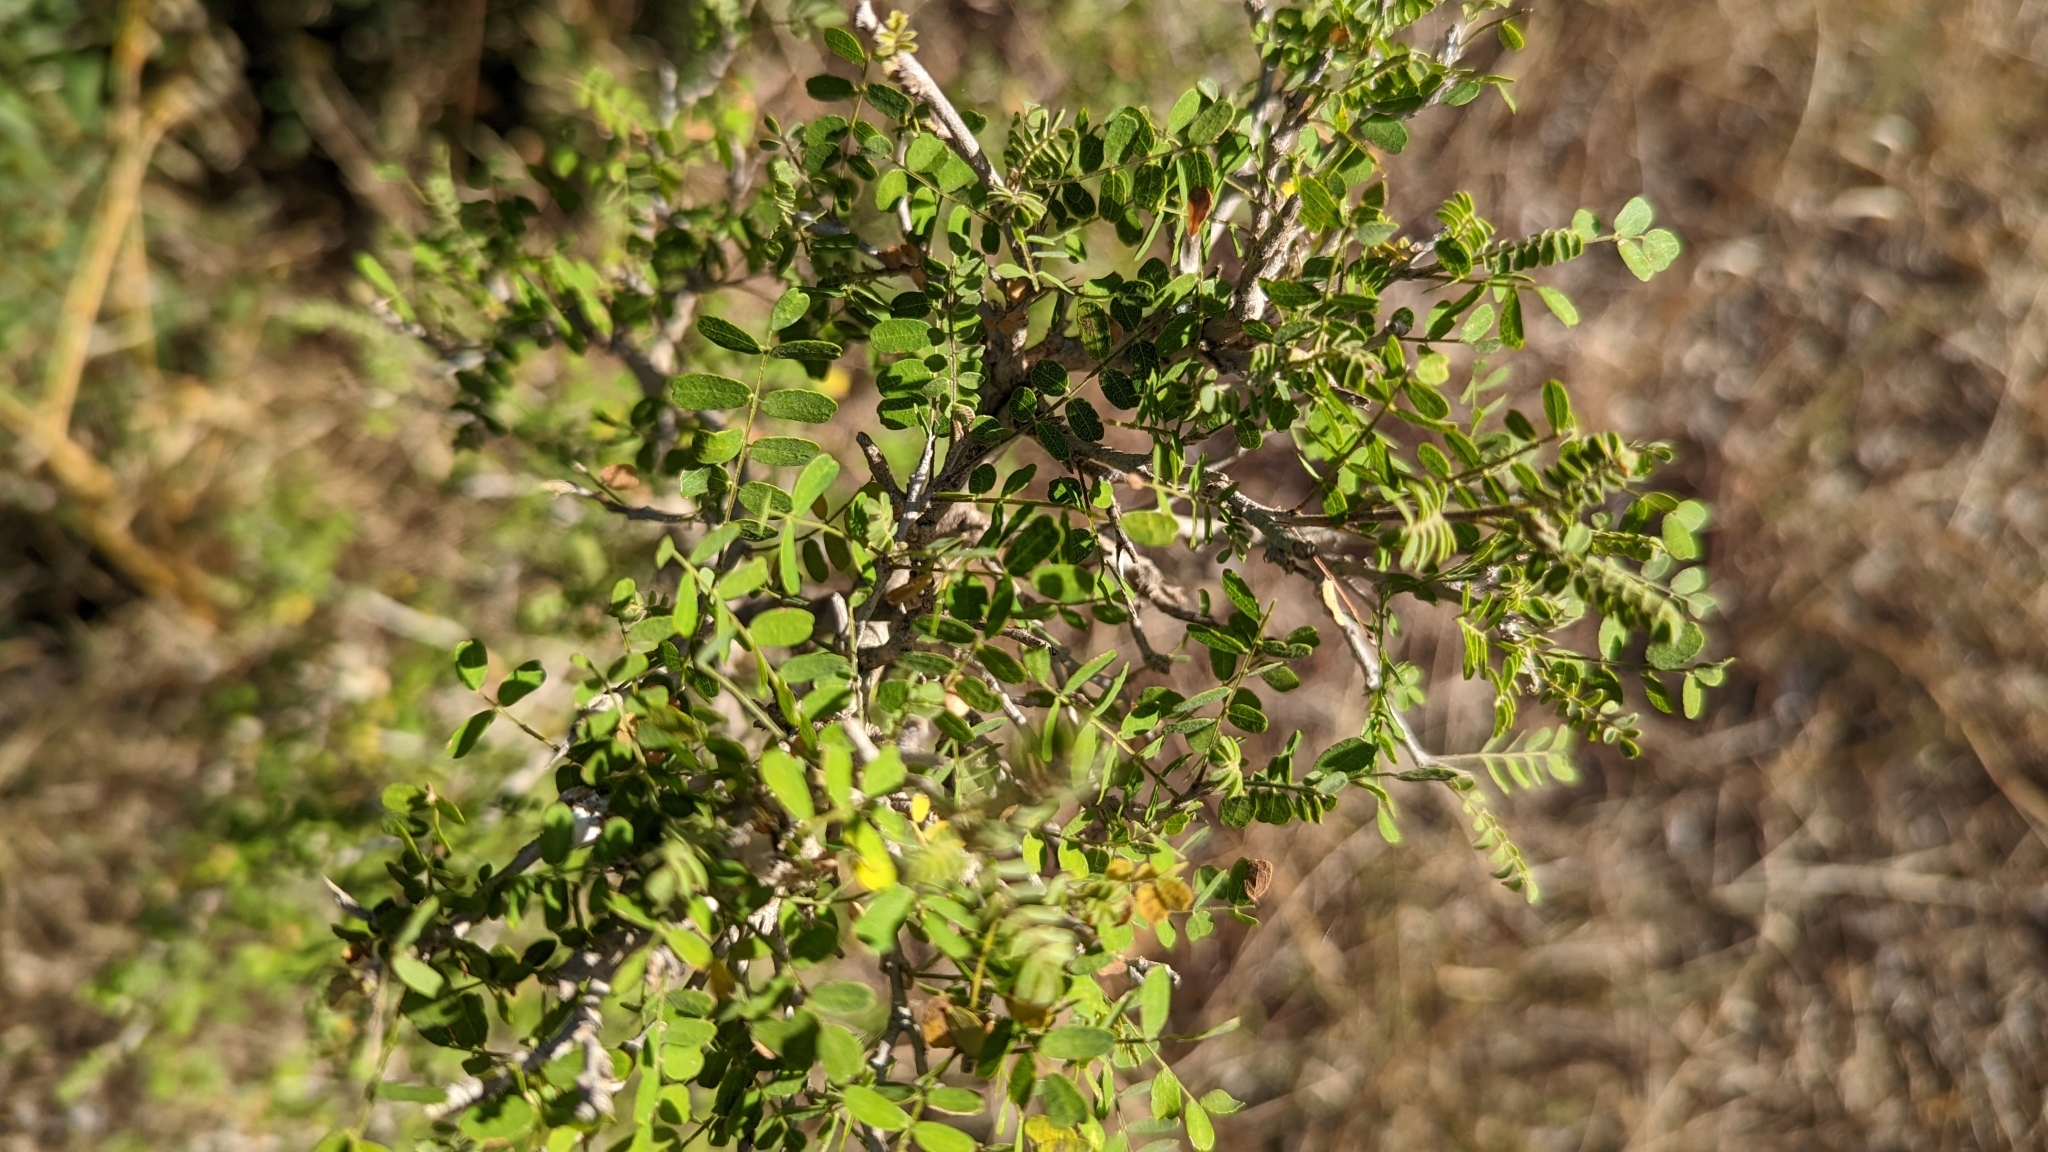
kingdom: Plantae
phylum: Tracheophyta
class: Magnoliopsida
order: Fabales
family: Fabaceae
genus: Eysenhardtia
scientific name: Eysenhardtia texana
